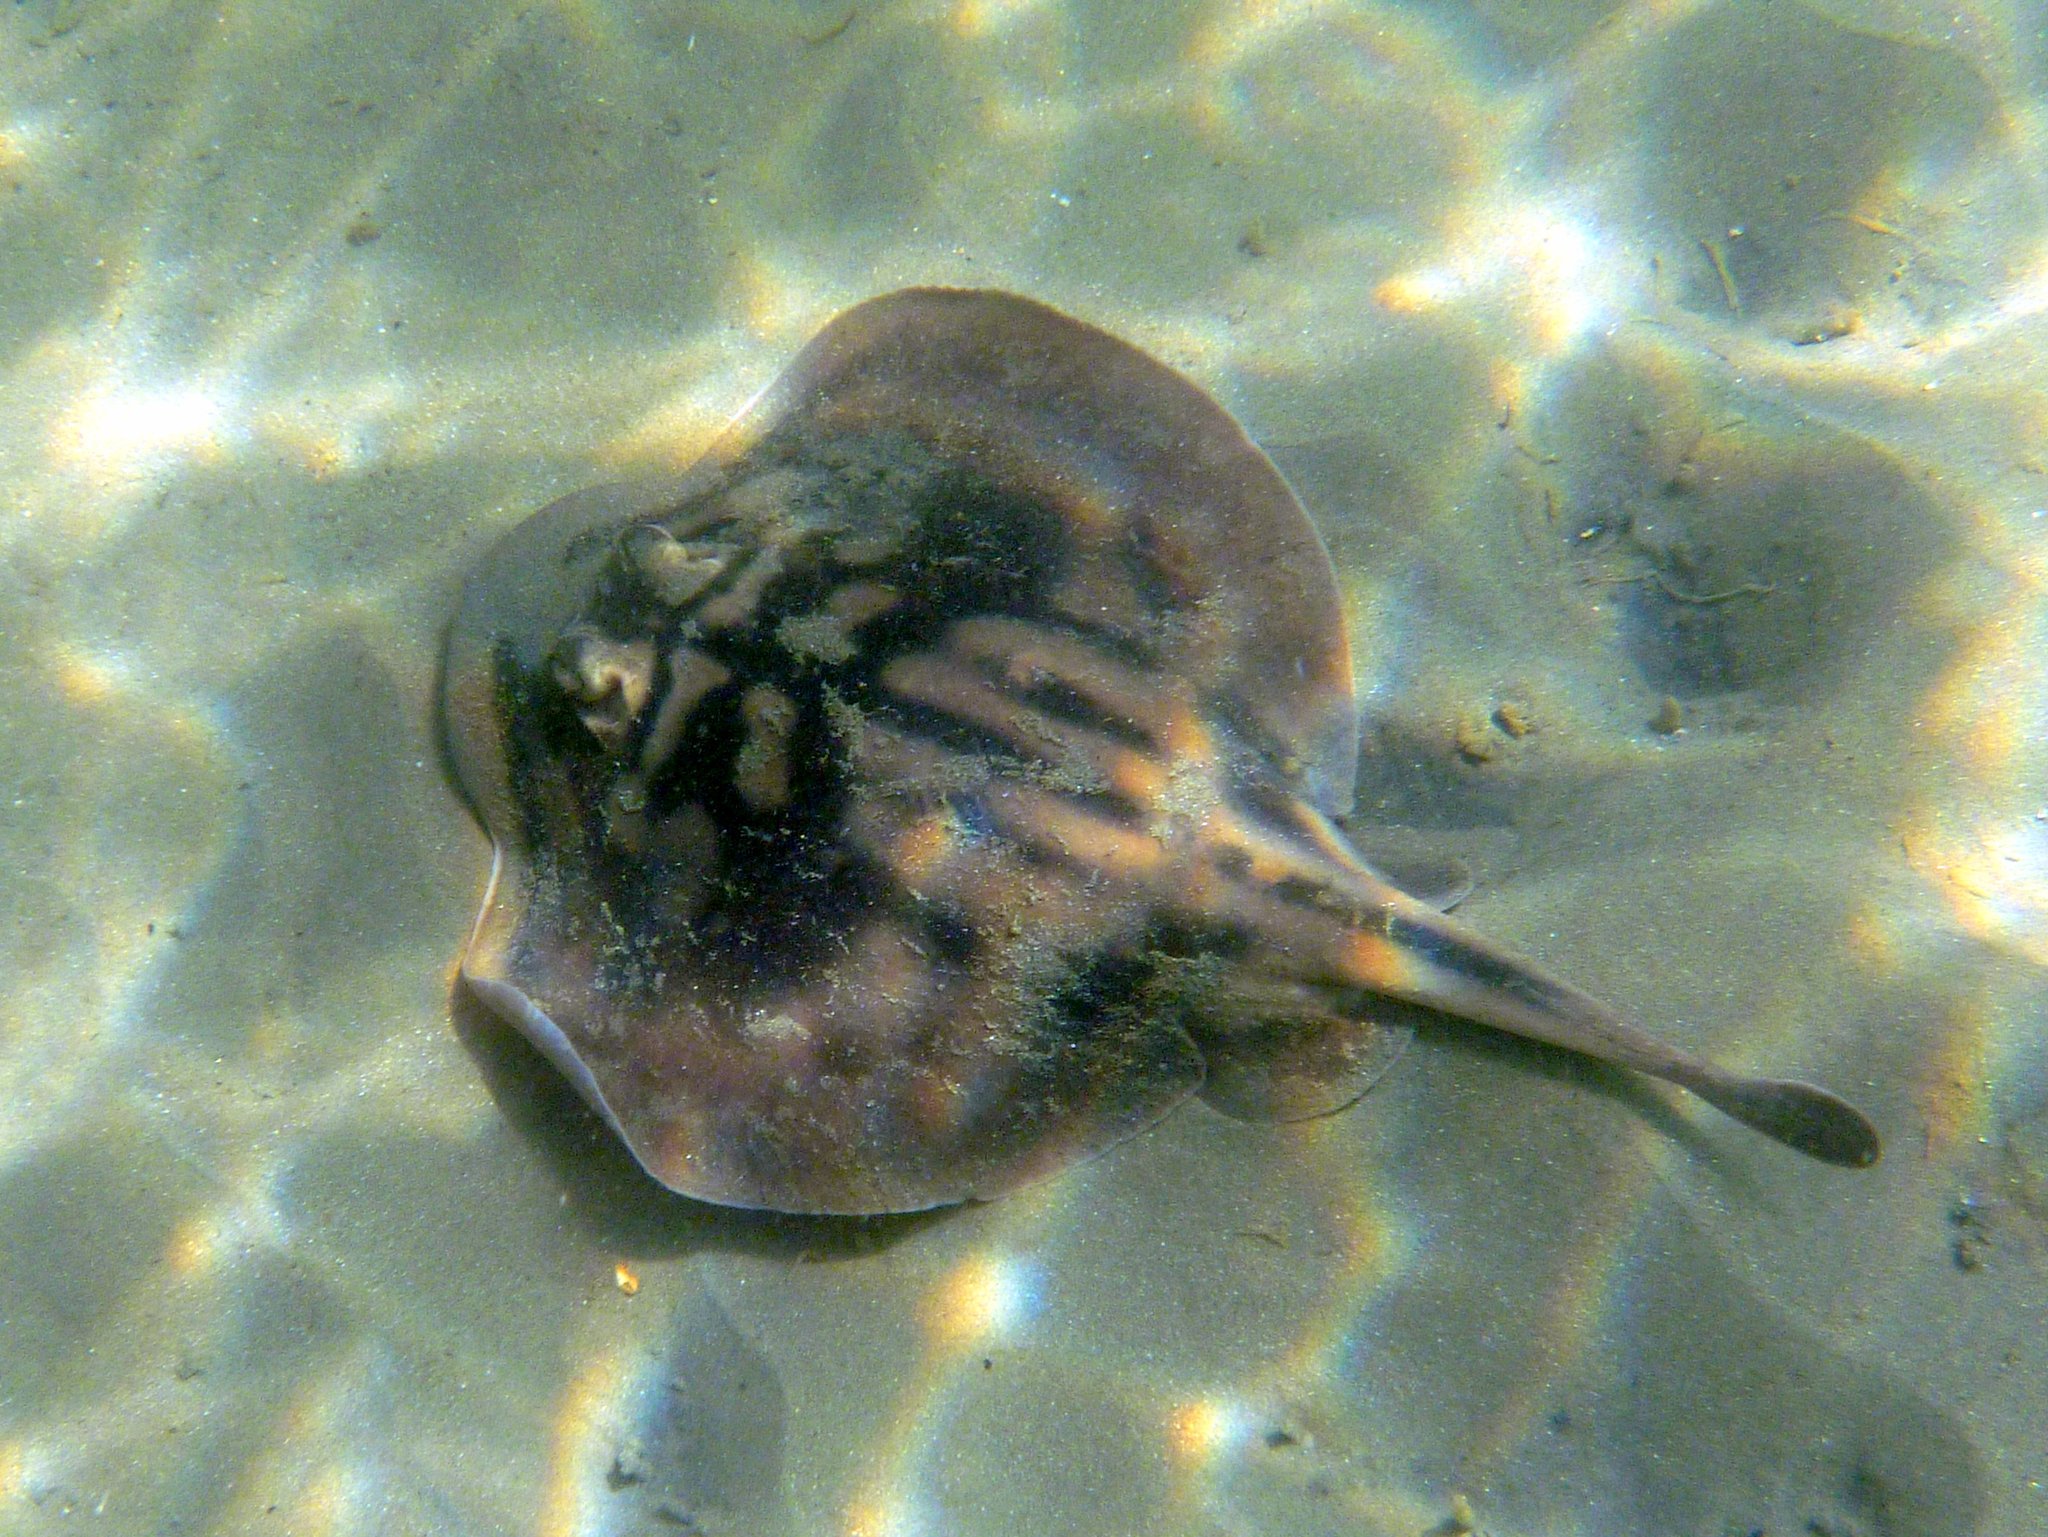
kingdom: Animalia
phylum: Chordata
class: Elasmobranchii
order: Myliobatiformes
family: Urolophidae
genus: Urolophus
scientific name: Urolophus cruciatus
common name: Banded stingaree
